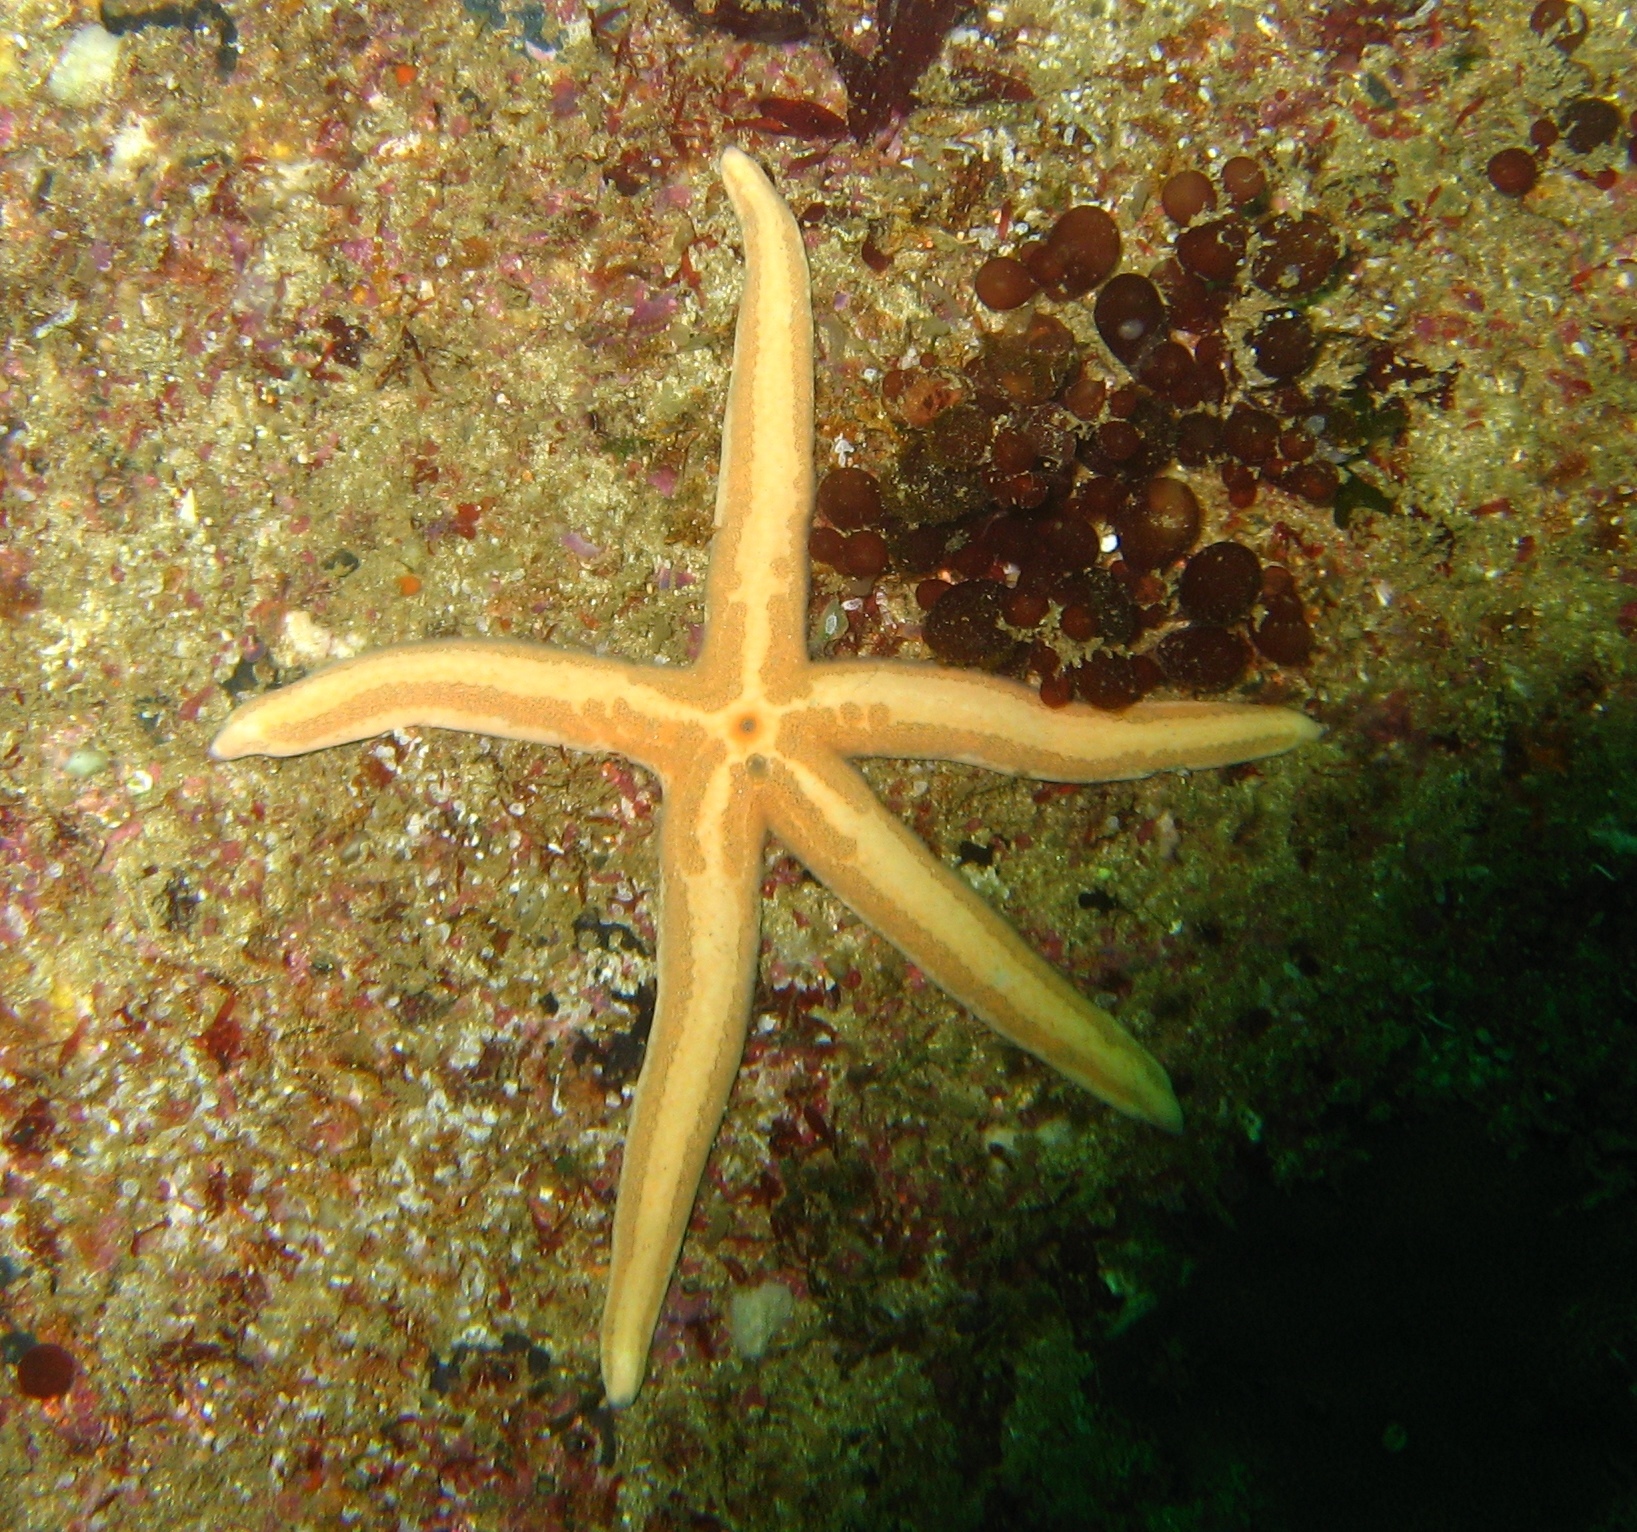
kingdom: Animalia
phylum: Echinodermata
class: Asteroidea
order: Valvatida
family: Ophidiasteridae
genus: Phataria
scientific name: Phataria unifascialis
